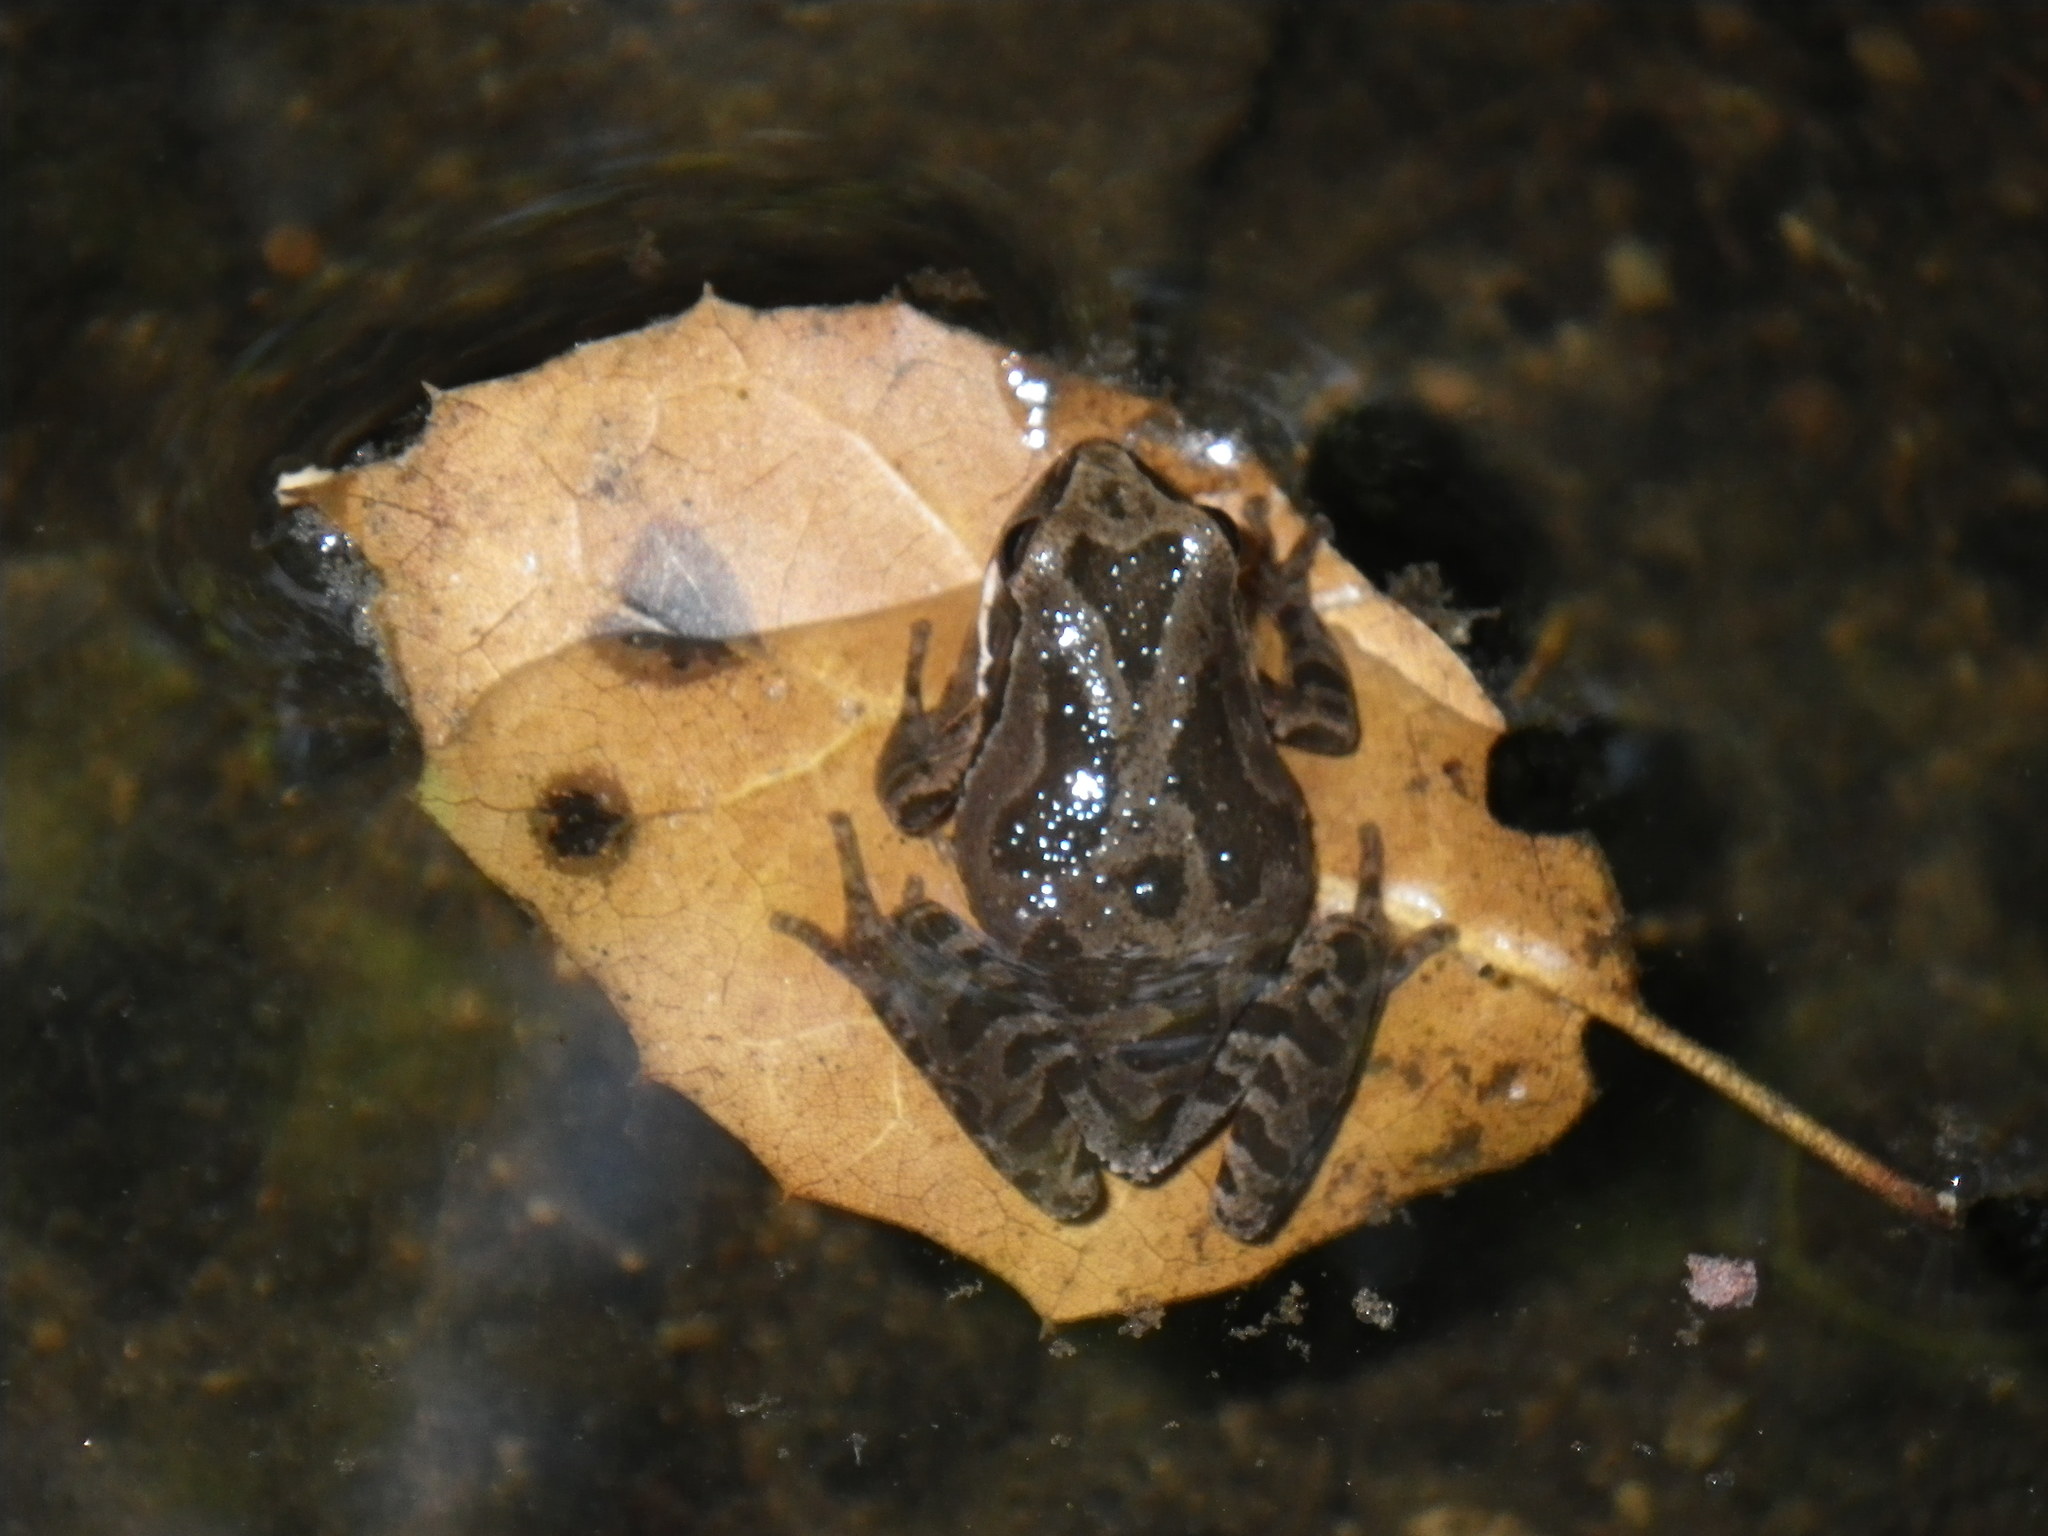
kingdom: Animalia
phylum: Chordata
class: Amphibia
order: Anura
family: Hylidae
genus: Pseudacris
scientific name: Pseudacris regilla
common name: Pacific chorus frog
